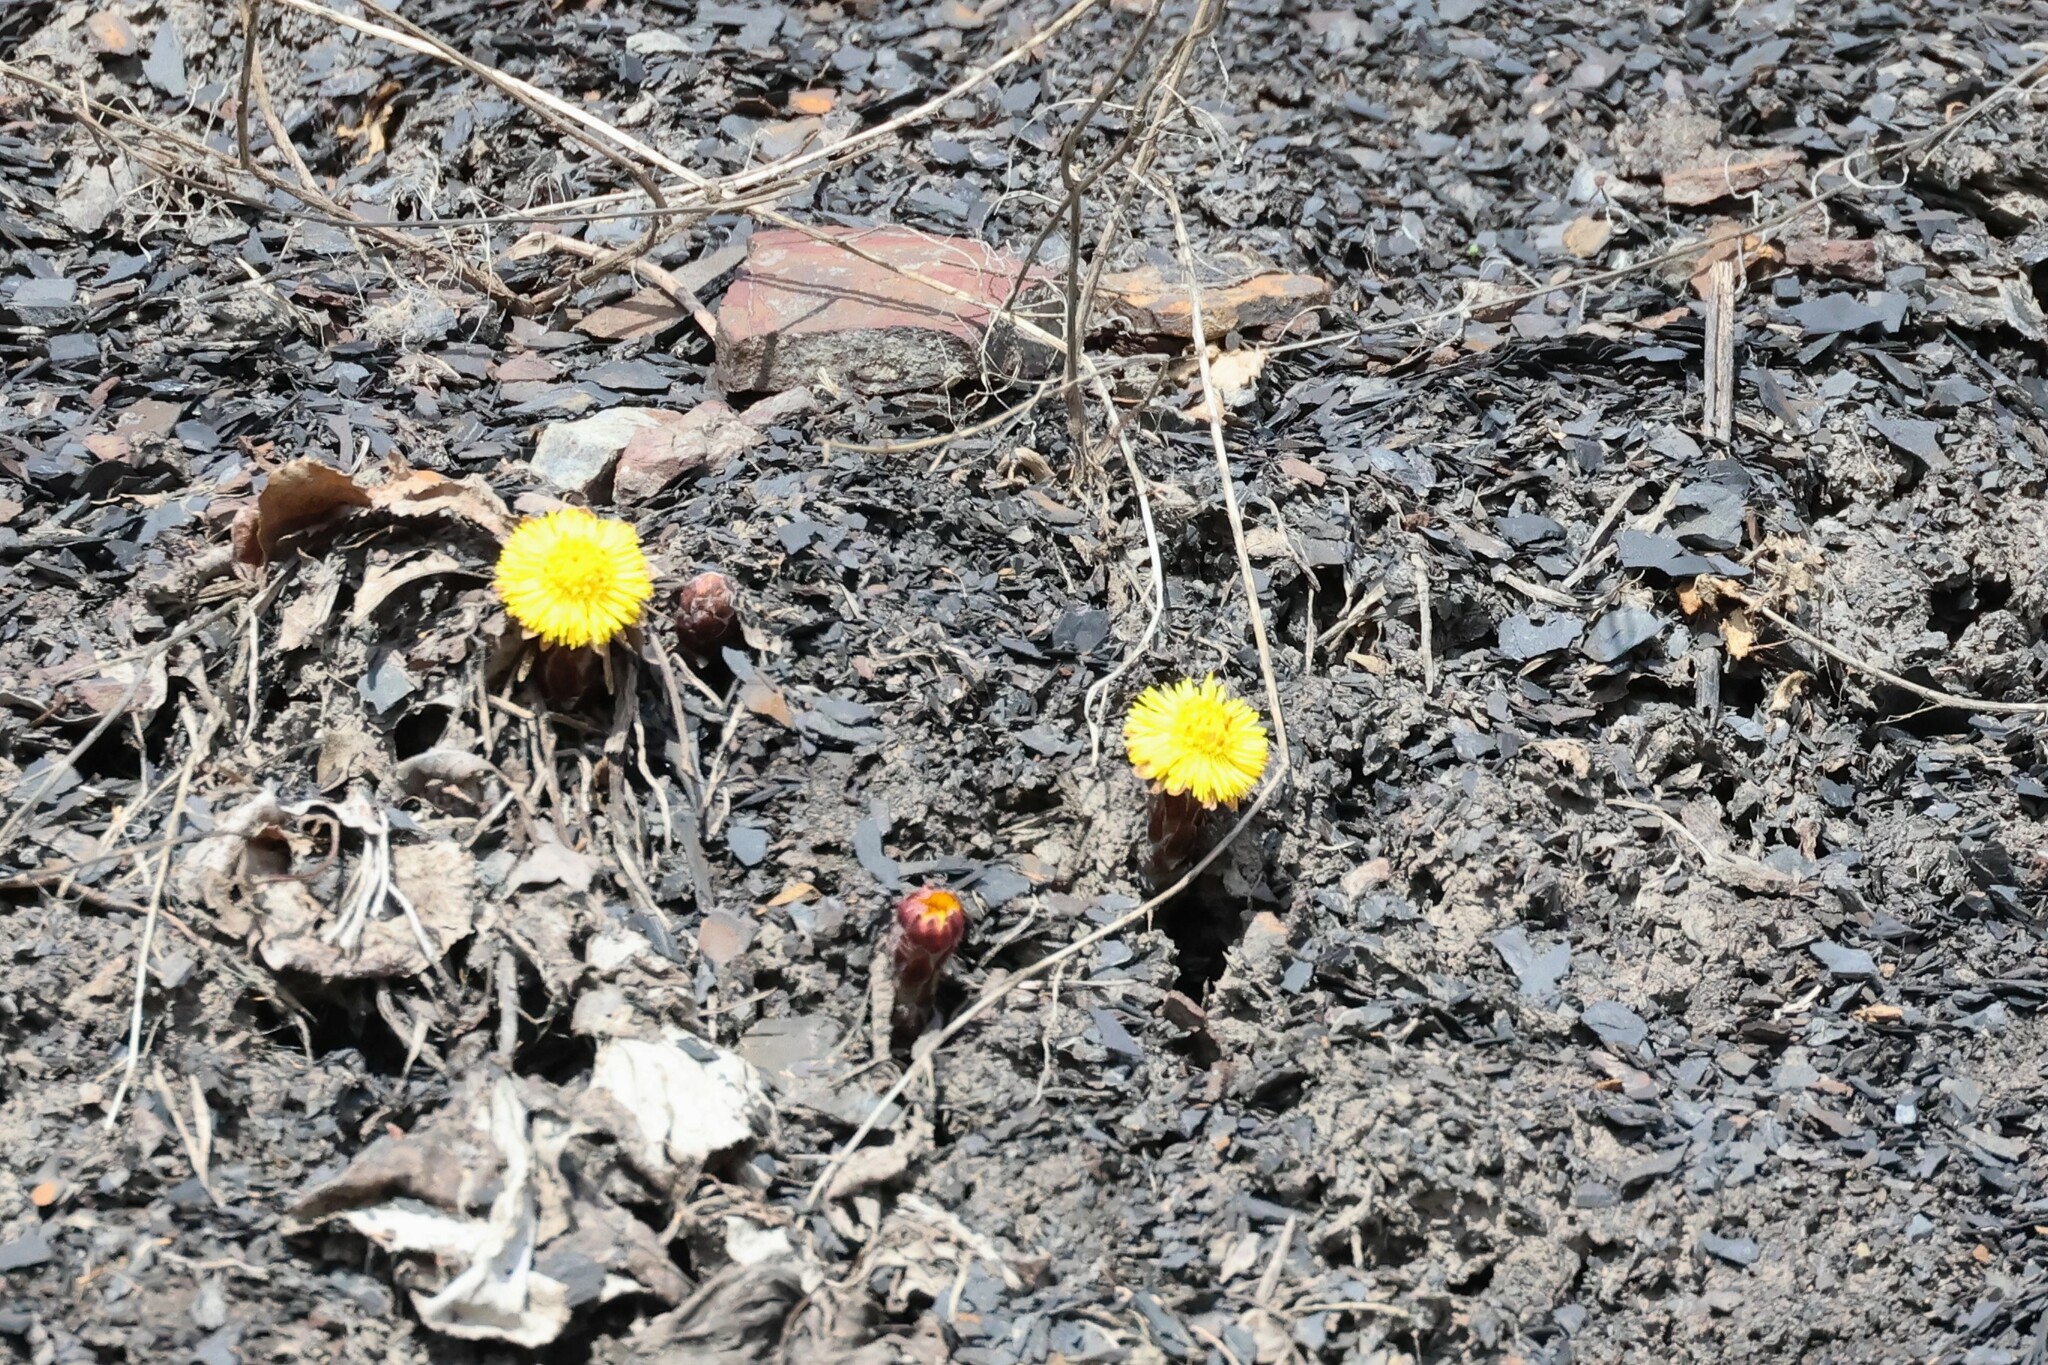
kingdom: Plantae
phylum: Tracheophyta
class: Magnoliopsida
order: Asterales
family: Asteraceae
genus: Tussilago
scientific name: Tussilago farfara
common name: Coltsfoot
